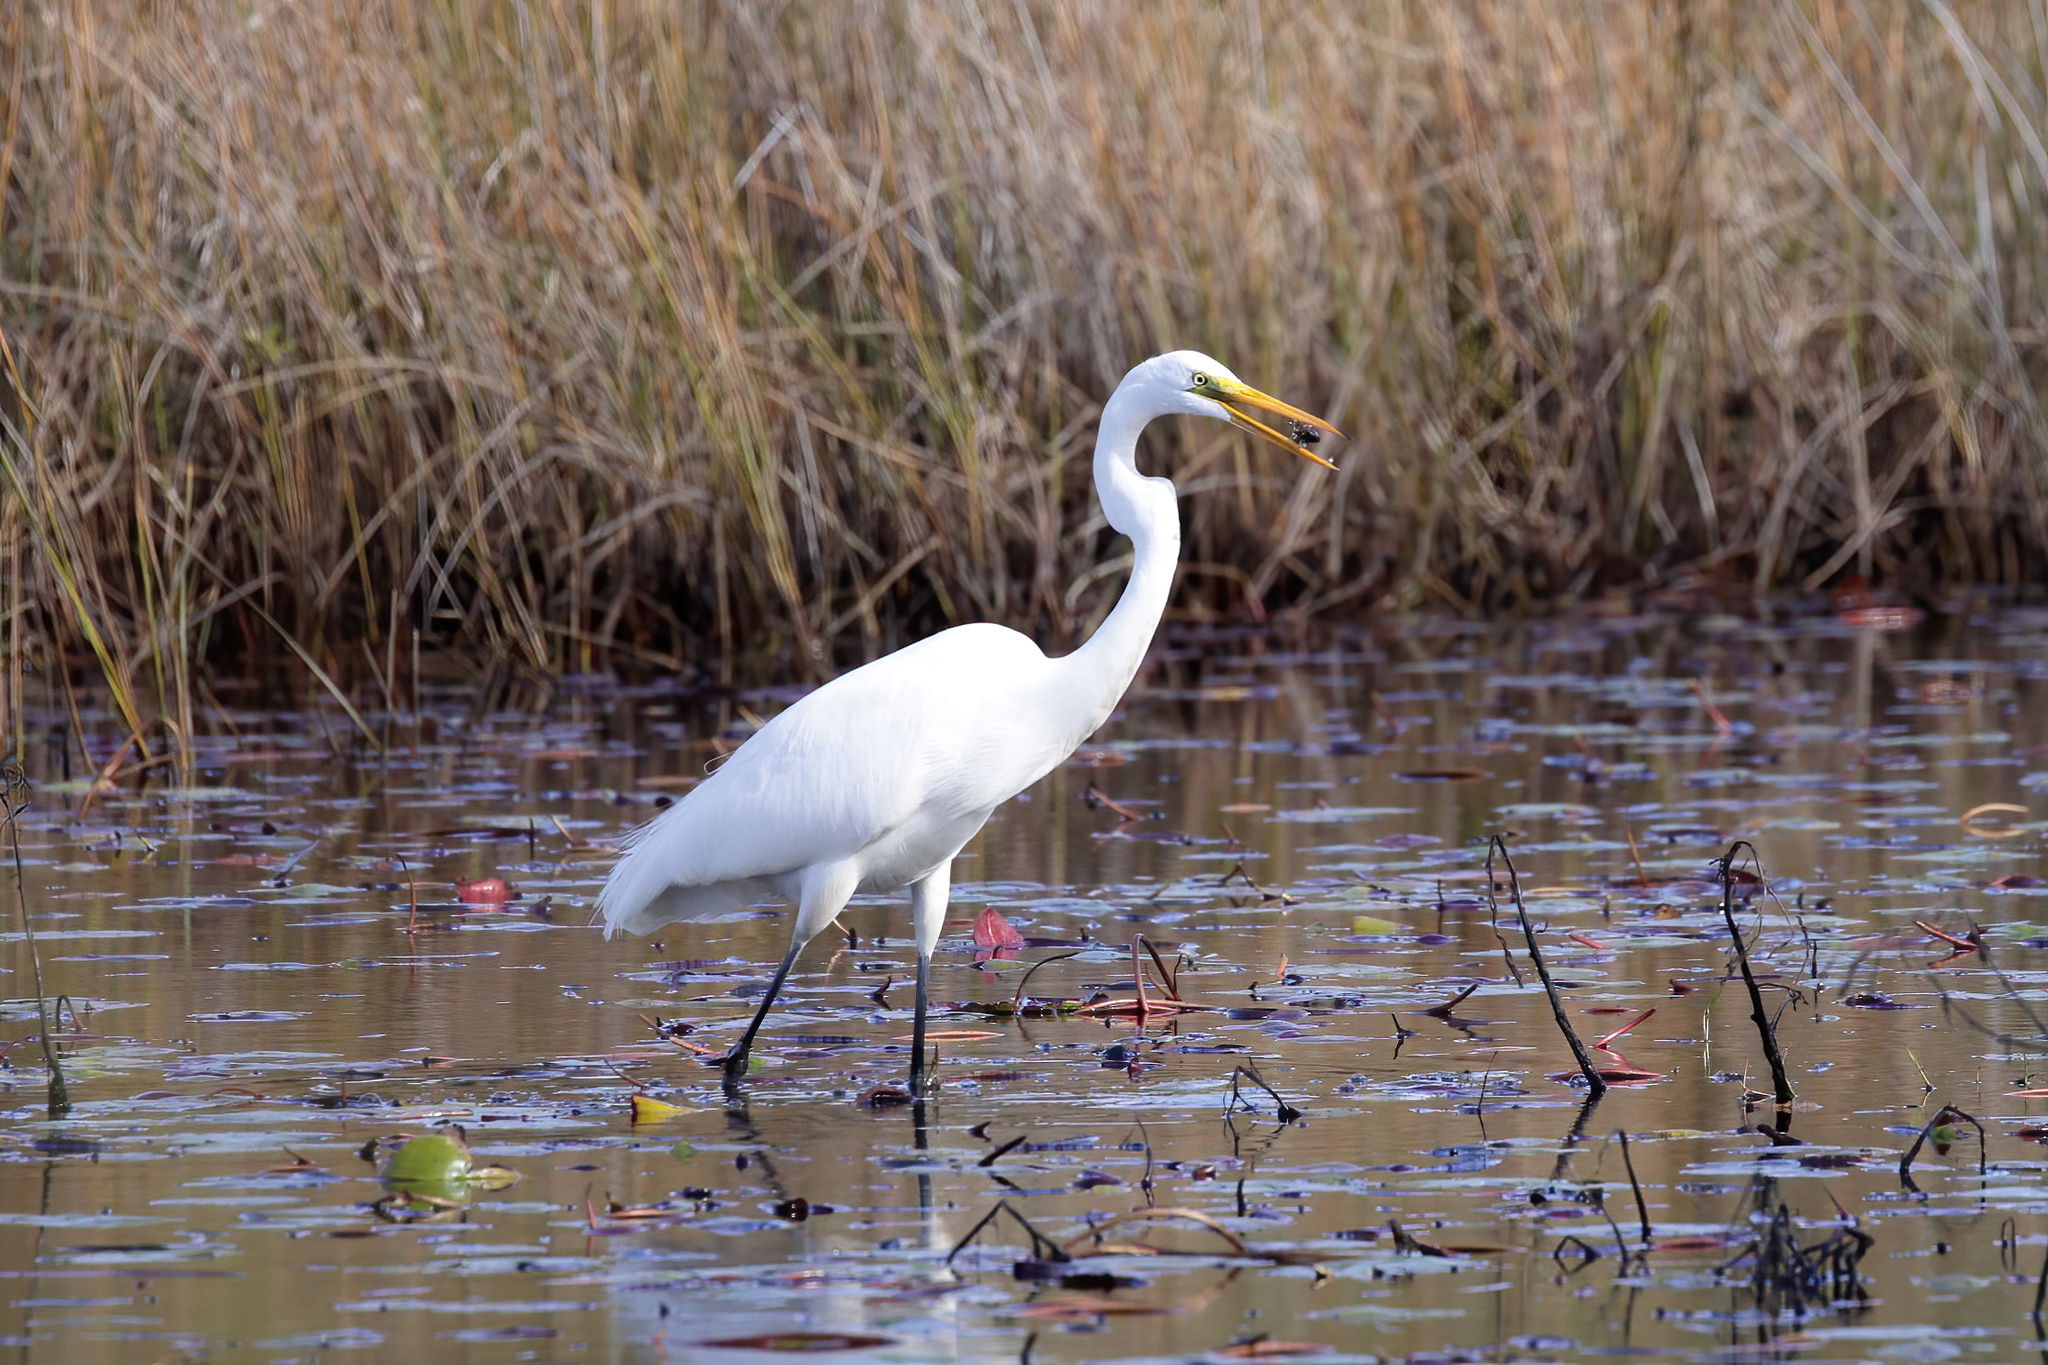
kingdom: Animalia
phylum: Chordata
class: Aves
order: Pelecaniformes
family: Ardeidae
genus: Ardea
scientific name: Ardea alba
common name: Great egret
